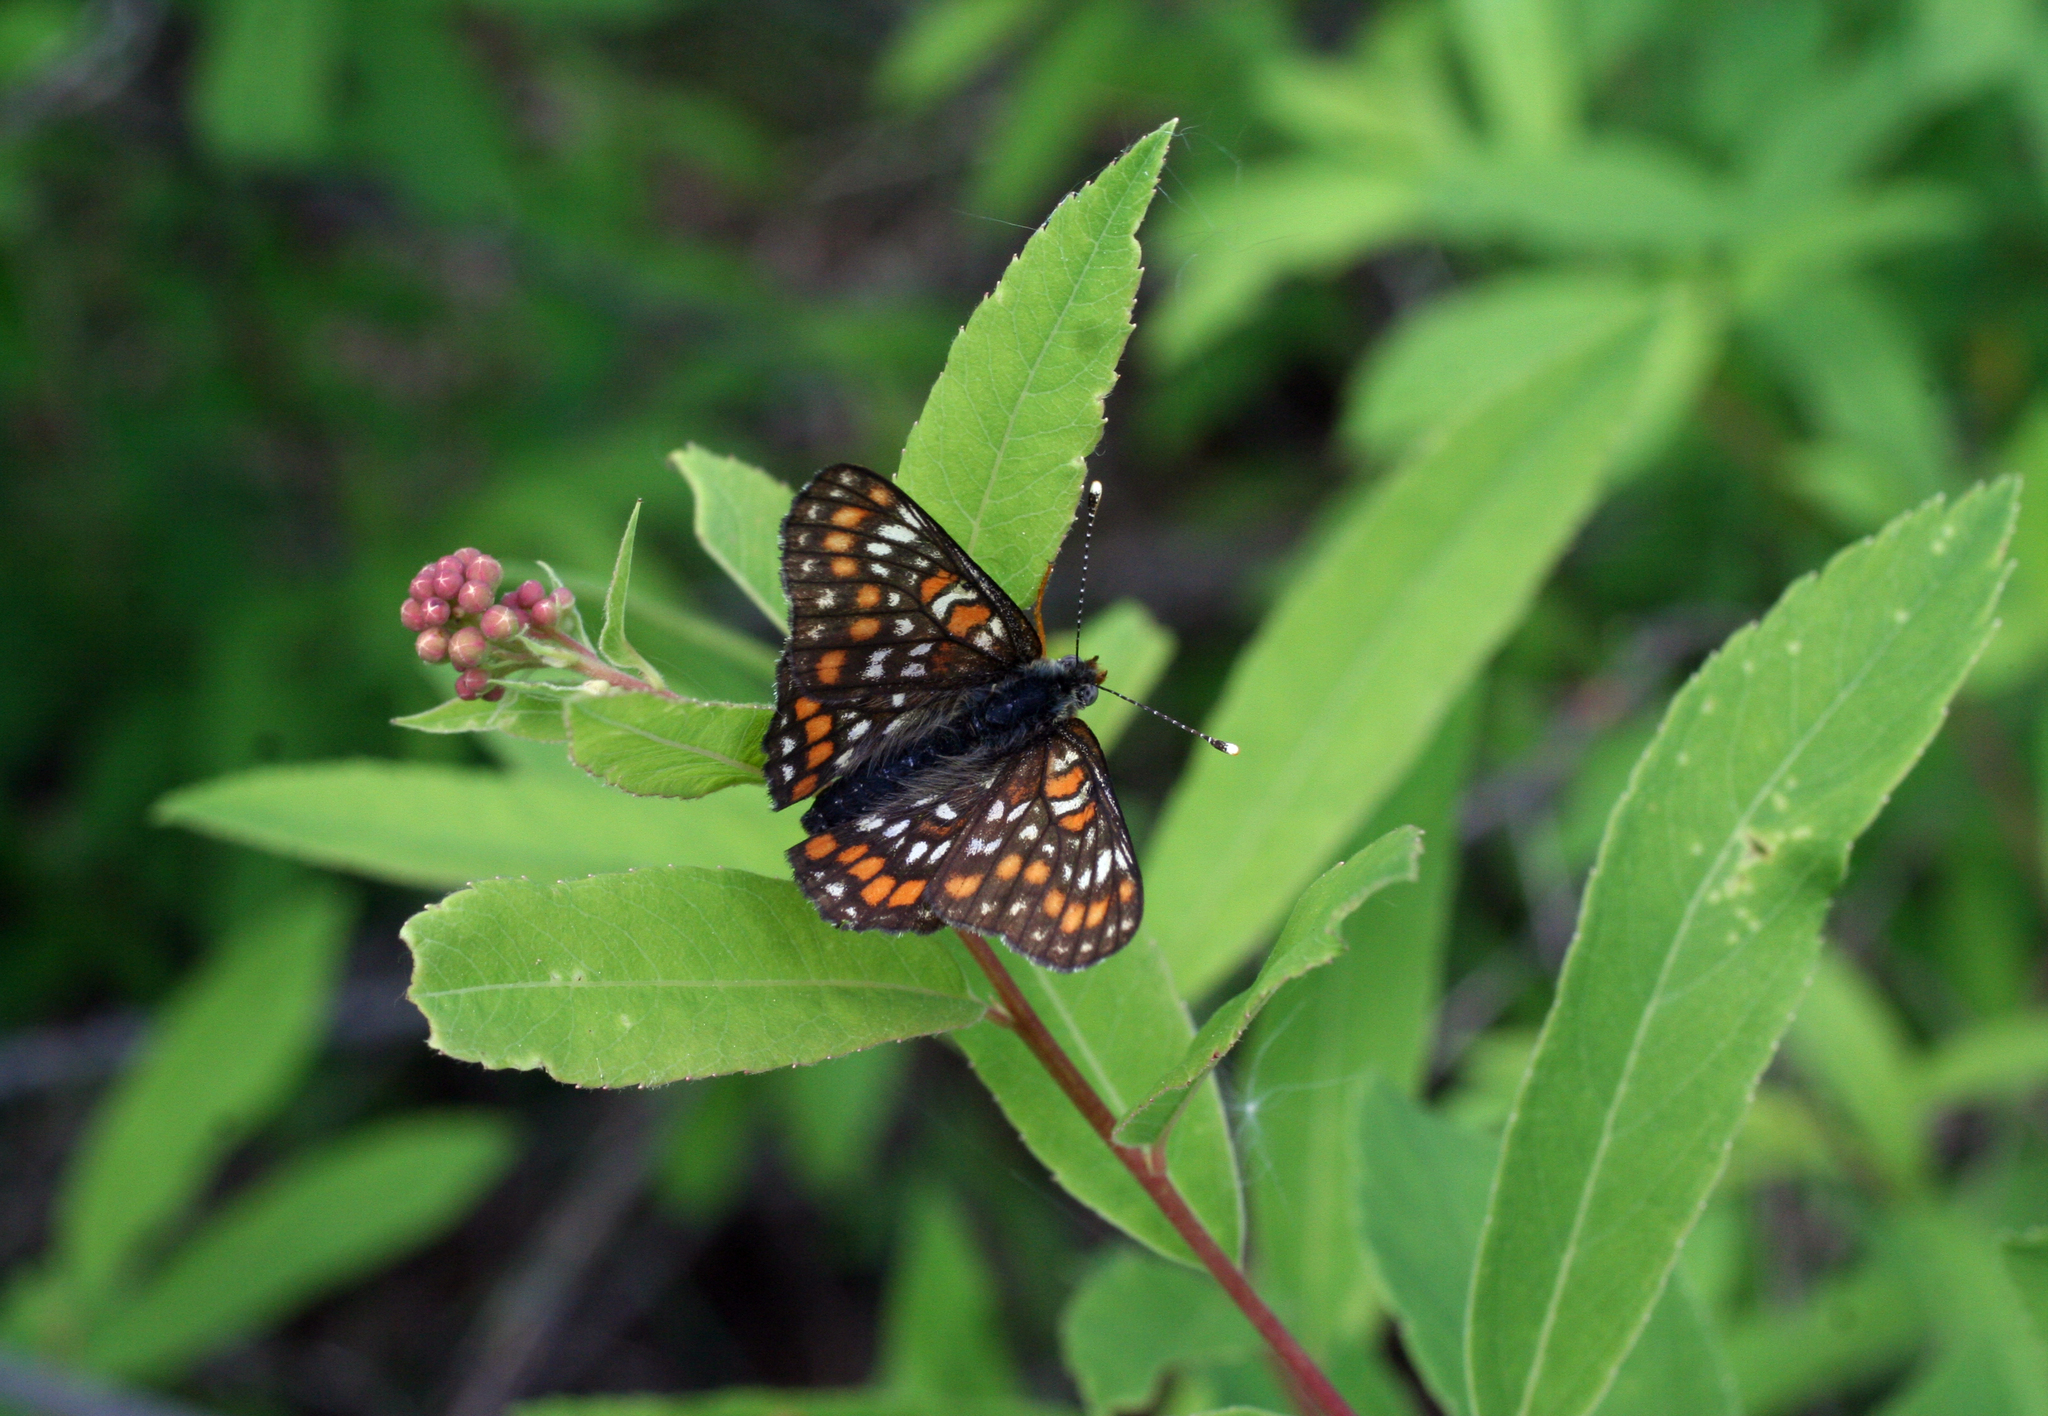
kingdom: Plantae
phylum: Tracheophyta
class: Magnoliopsida
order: Rosales
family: Rosaceae
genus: Spiraea
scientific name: Spiraea salicifolia
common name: Bridewort
